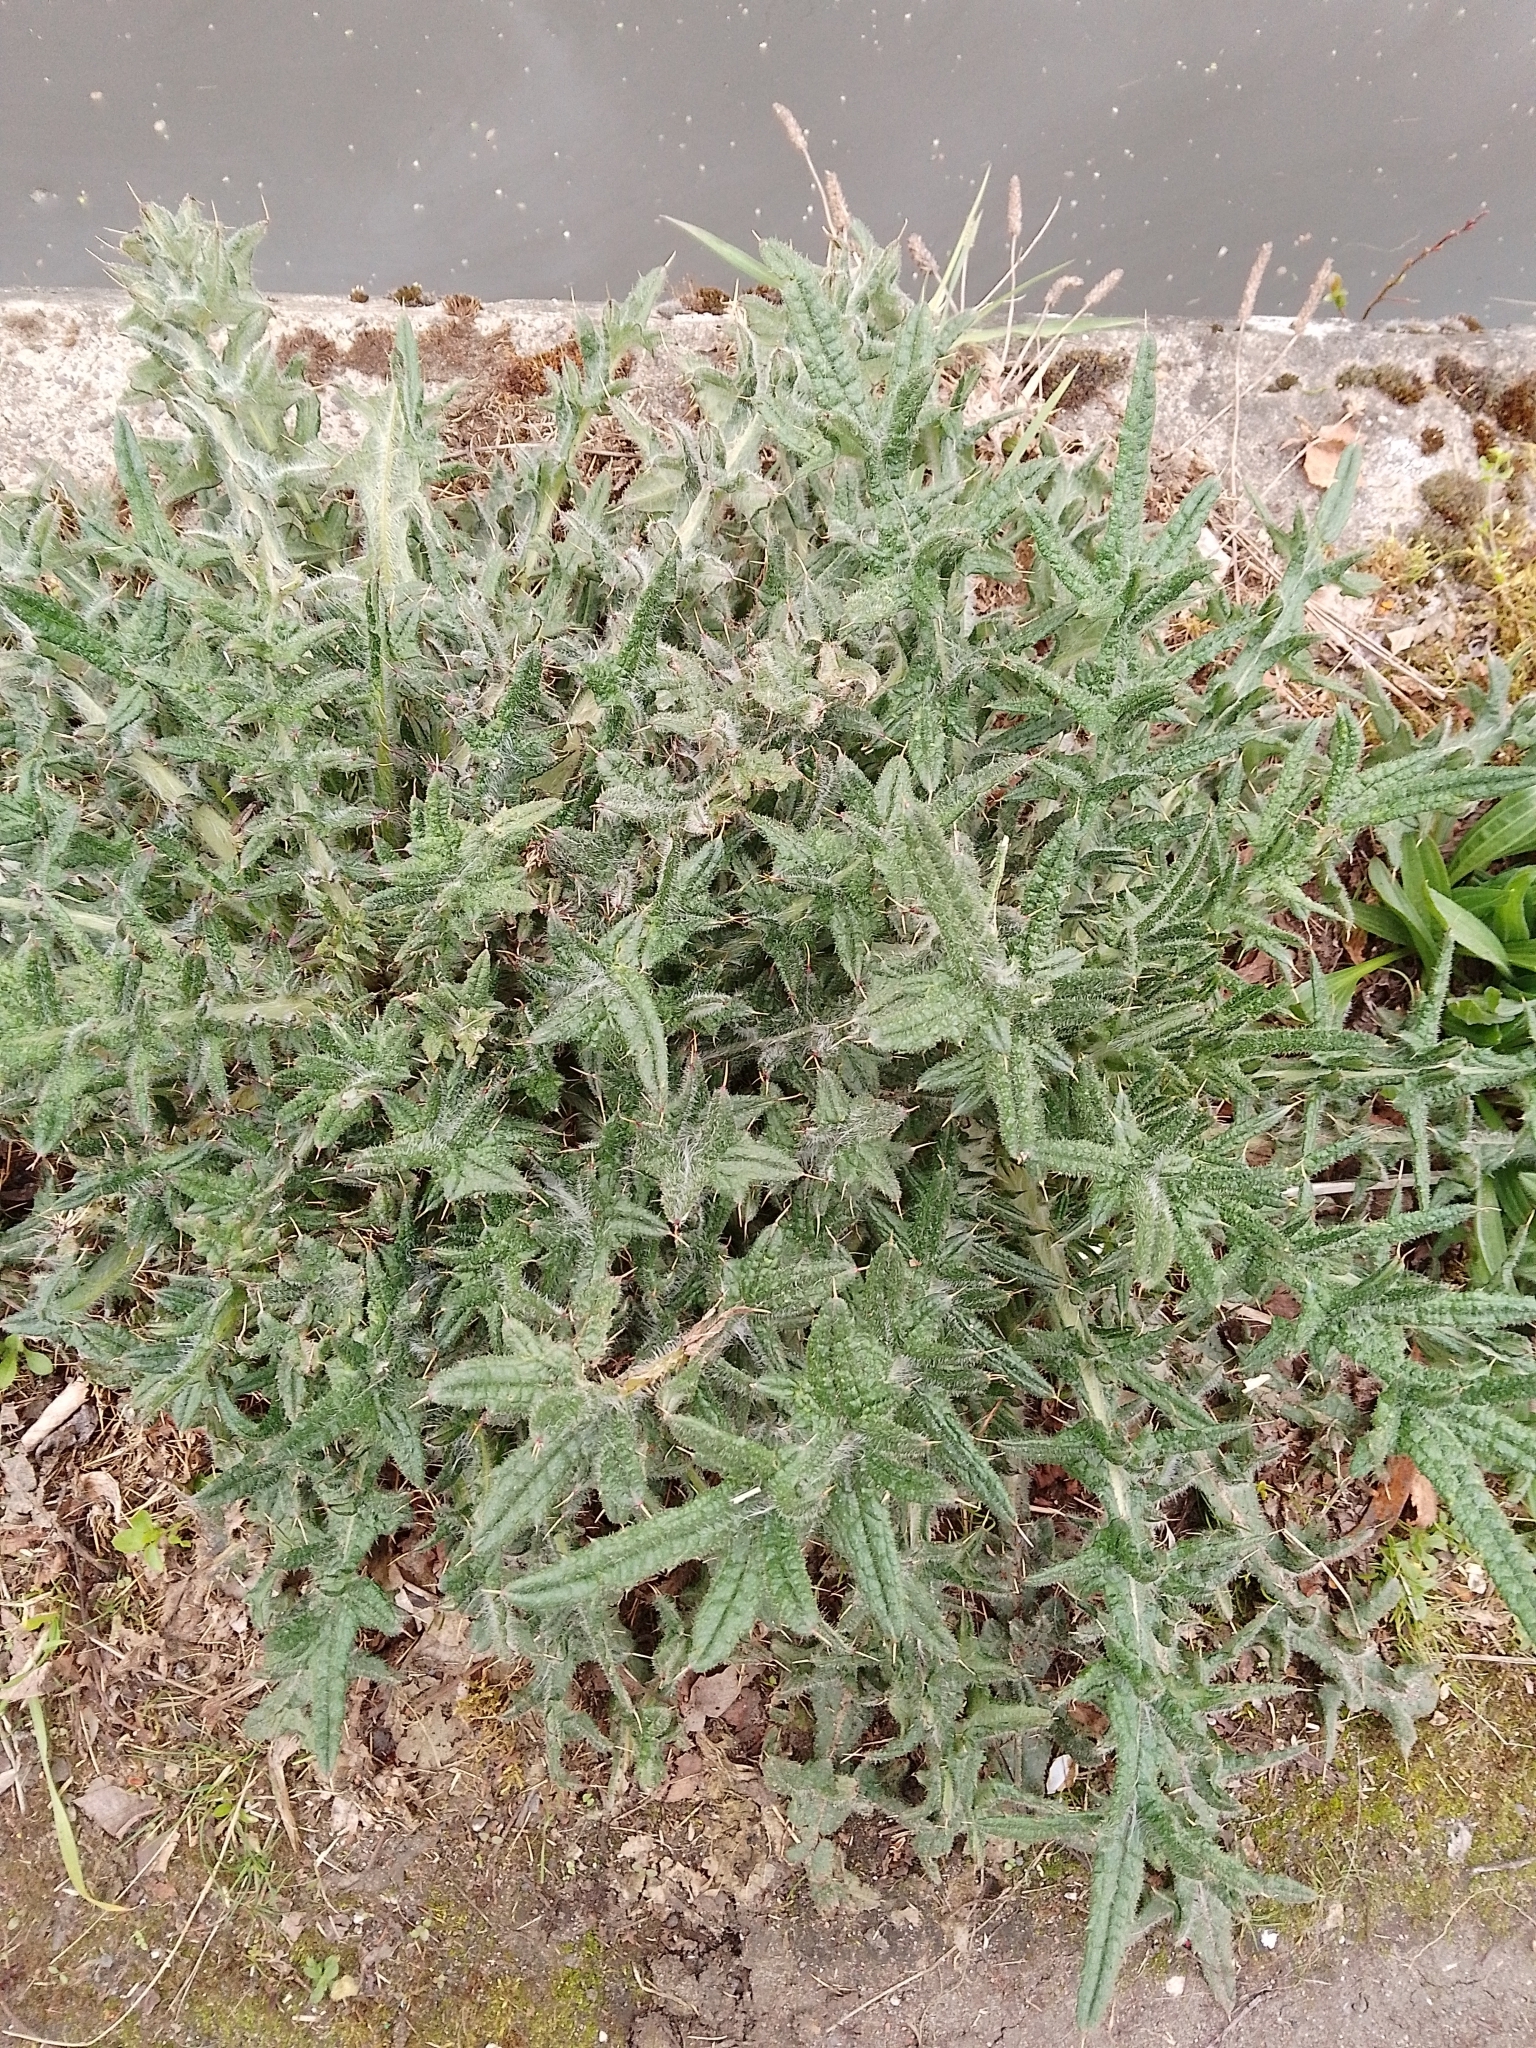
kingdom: Plantae
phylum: Tracheophyta
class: Magnoliopsida
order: Asterales
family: Asteraceae
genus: Cirsium
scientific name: Cirsium vulgare
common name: Bull thistle
